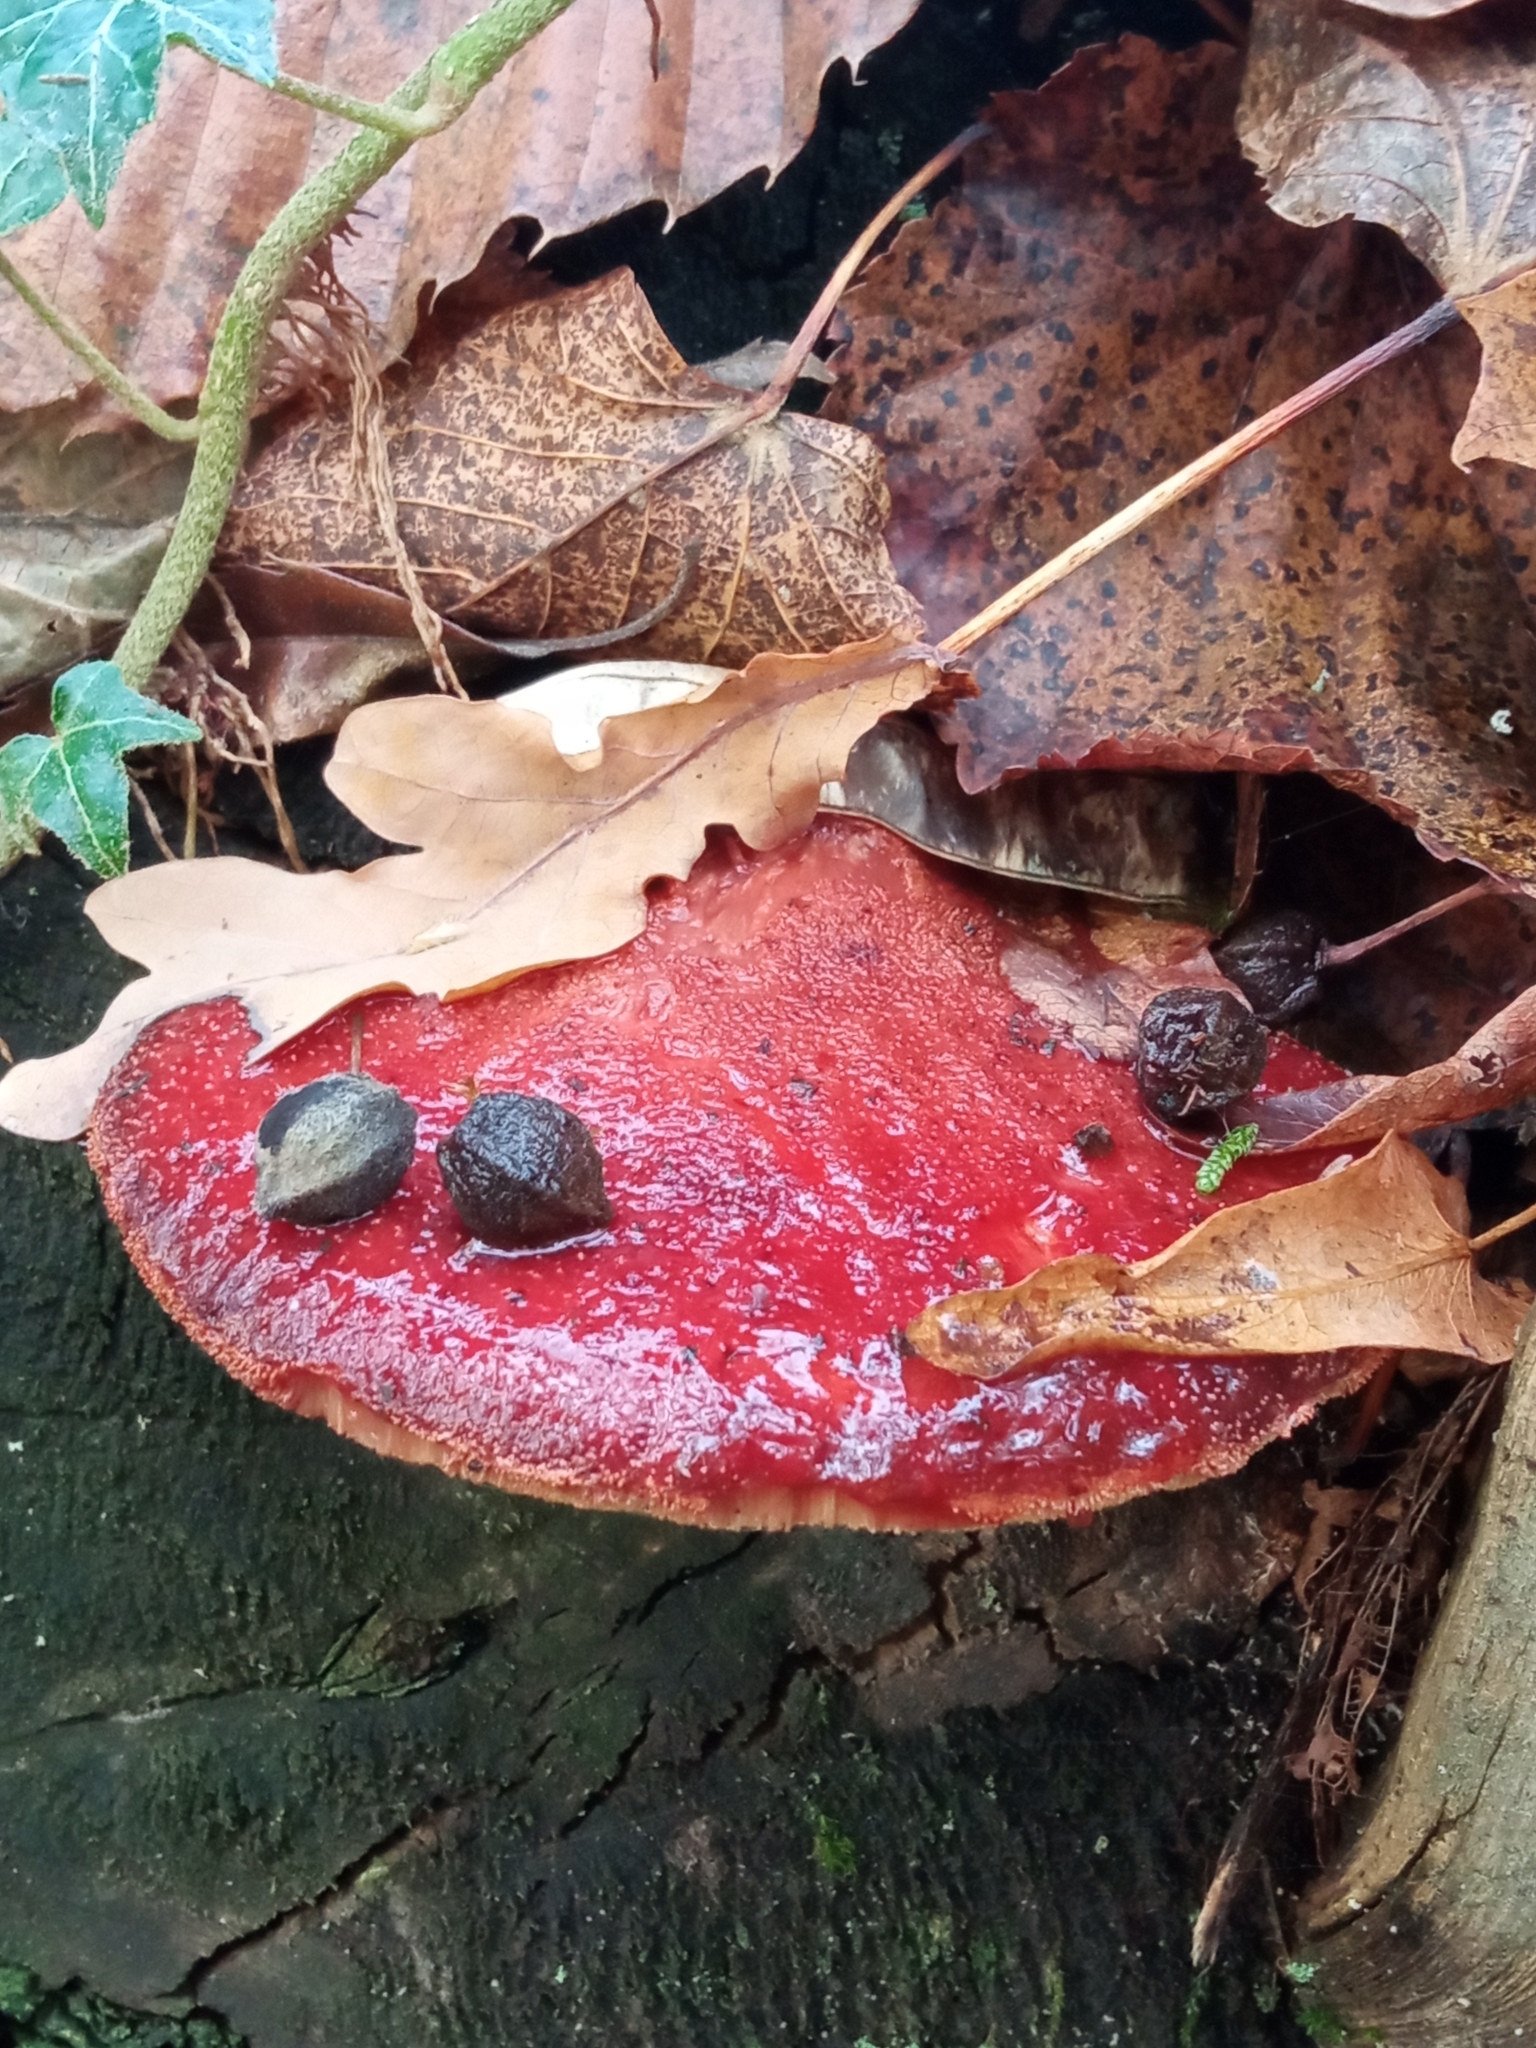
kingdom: Fungi
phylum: Basidiomycota
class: Agaricomycetes
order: Agaricales
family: Fistulinaceae
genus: Fistulina
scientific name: Fistulina hepatica
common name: Beef-steak fungus
